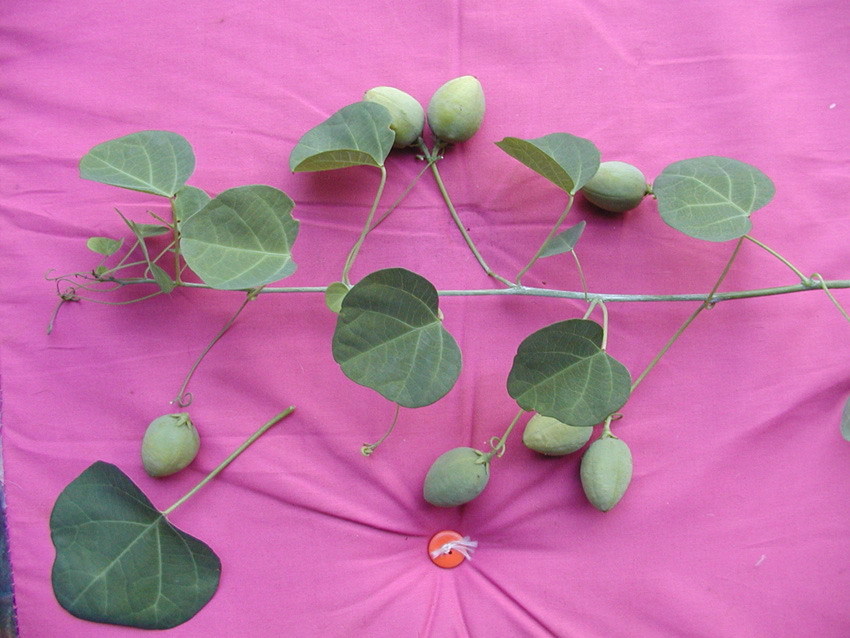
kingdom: Plantae
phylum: Tracheophyta
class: Magnoliopsida
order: Malpighiales
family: Passifloraceae
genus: Adenia
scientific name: Adenia gummifera
